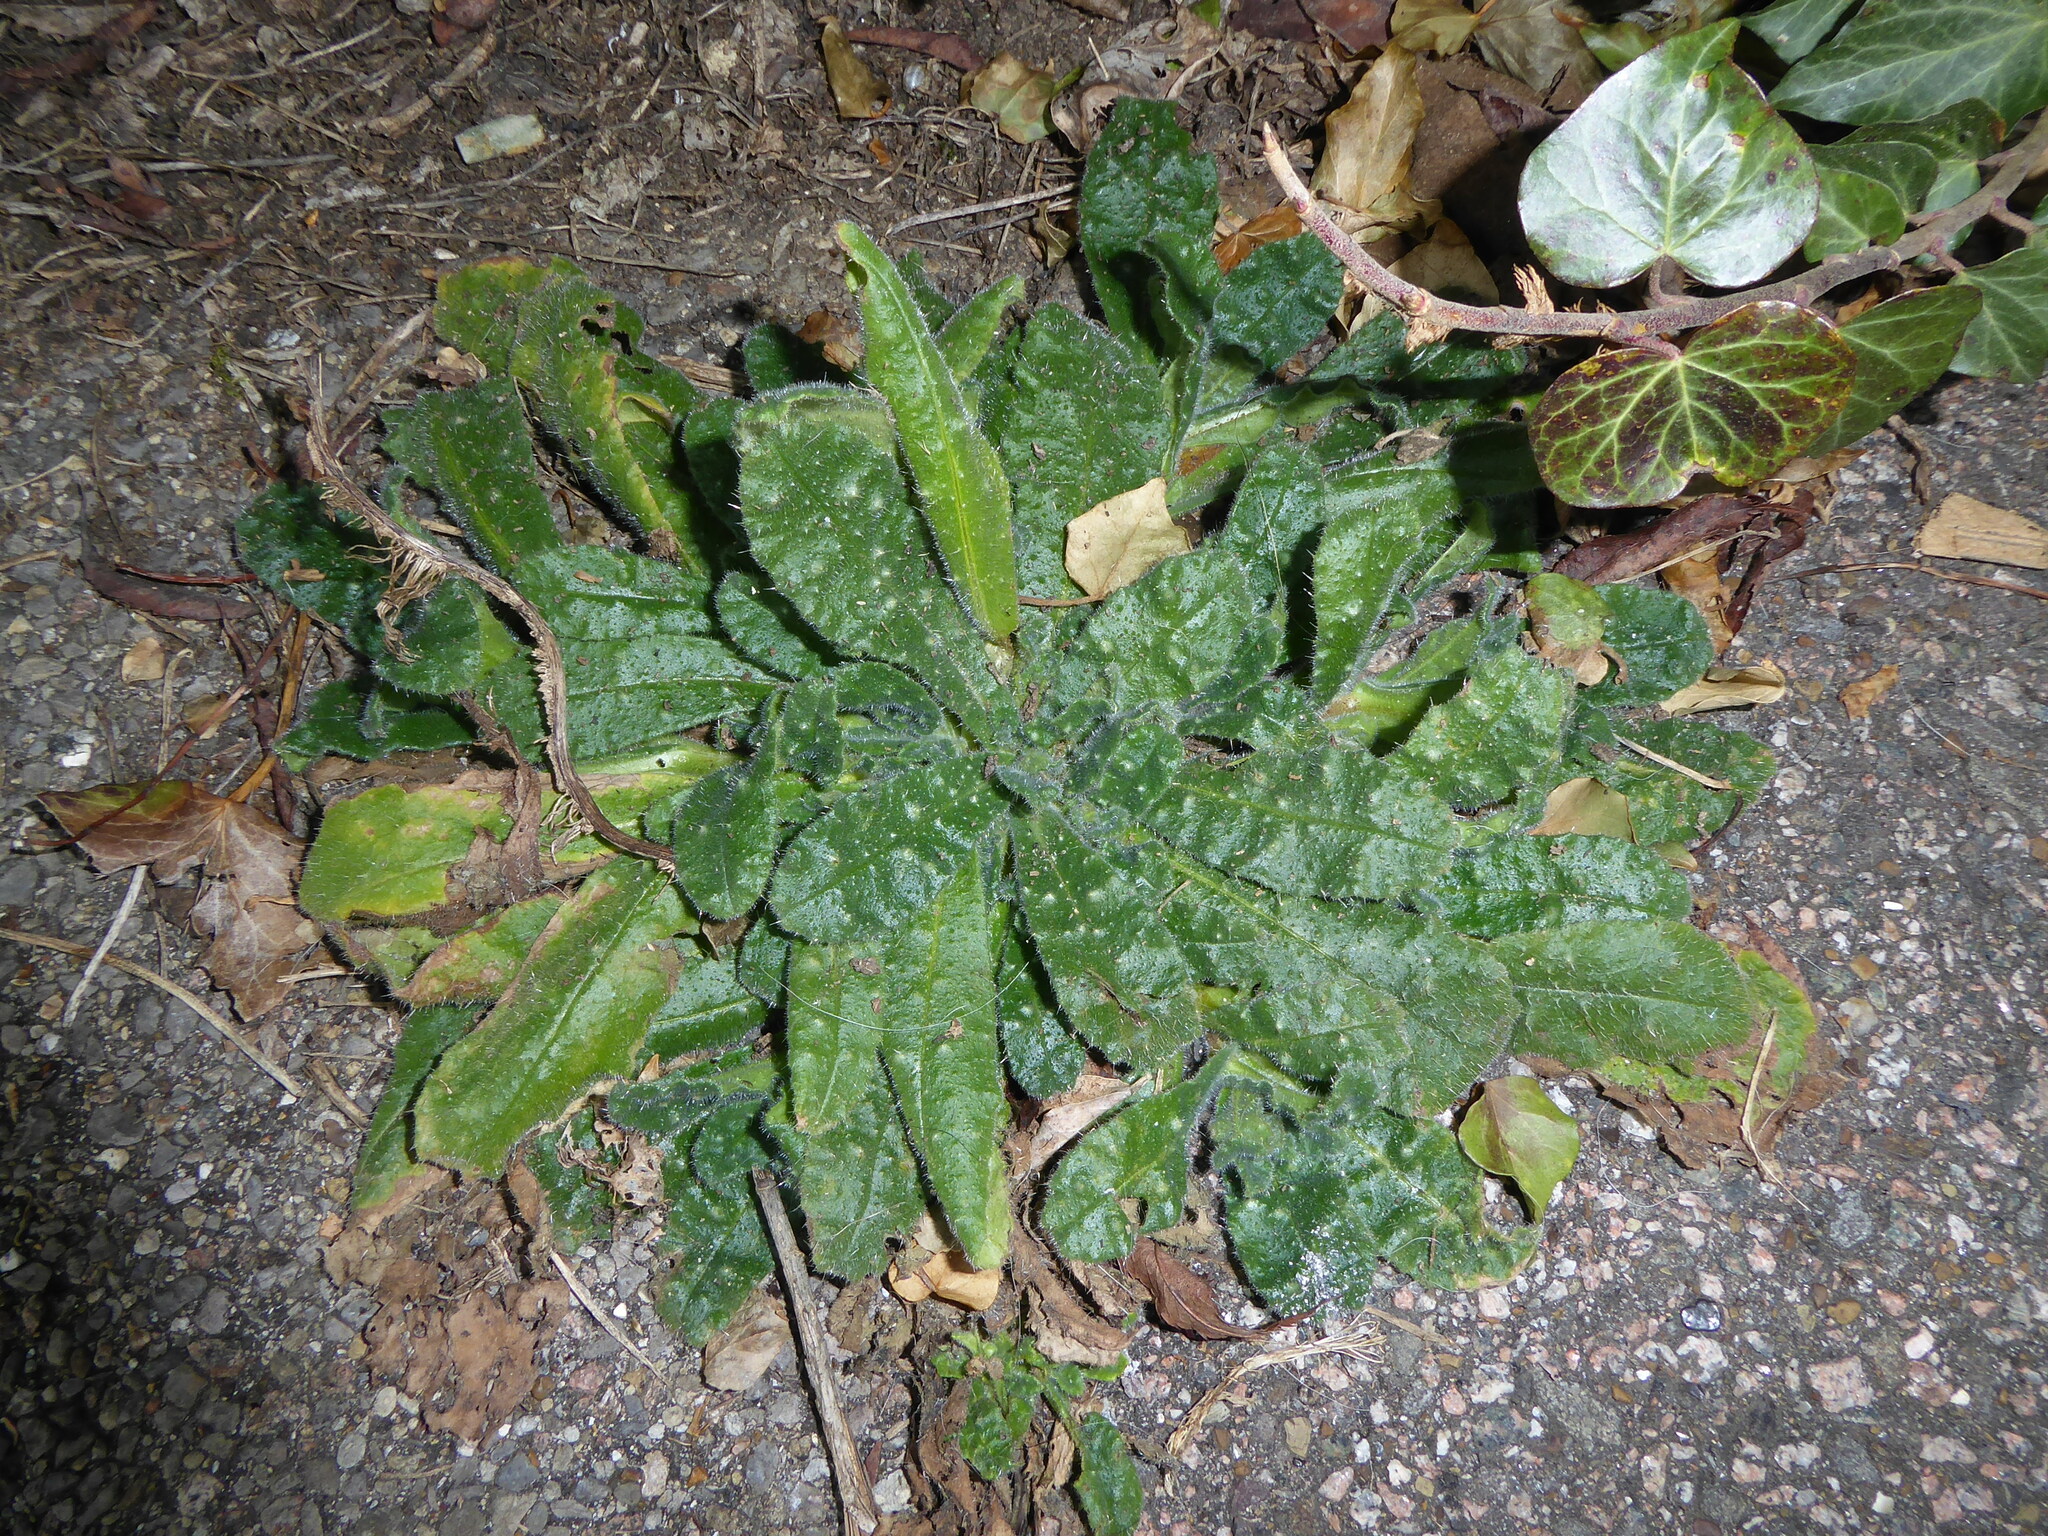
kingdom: Plantae
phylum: Tracheophyta
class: Magnoliopsida
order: Asterales
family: Asteraceae
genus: Helminthotheca
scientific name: Helminthotheca echioides
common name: Ox-tongue
